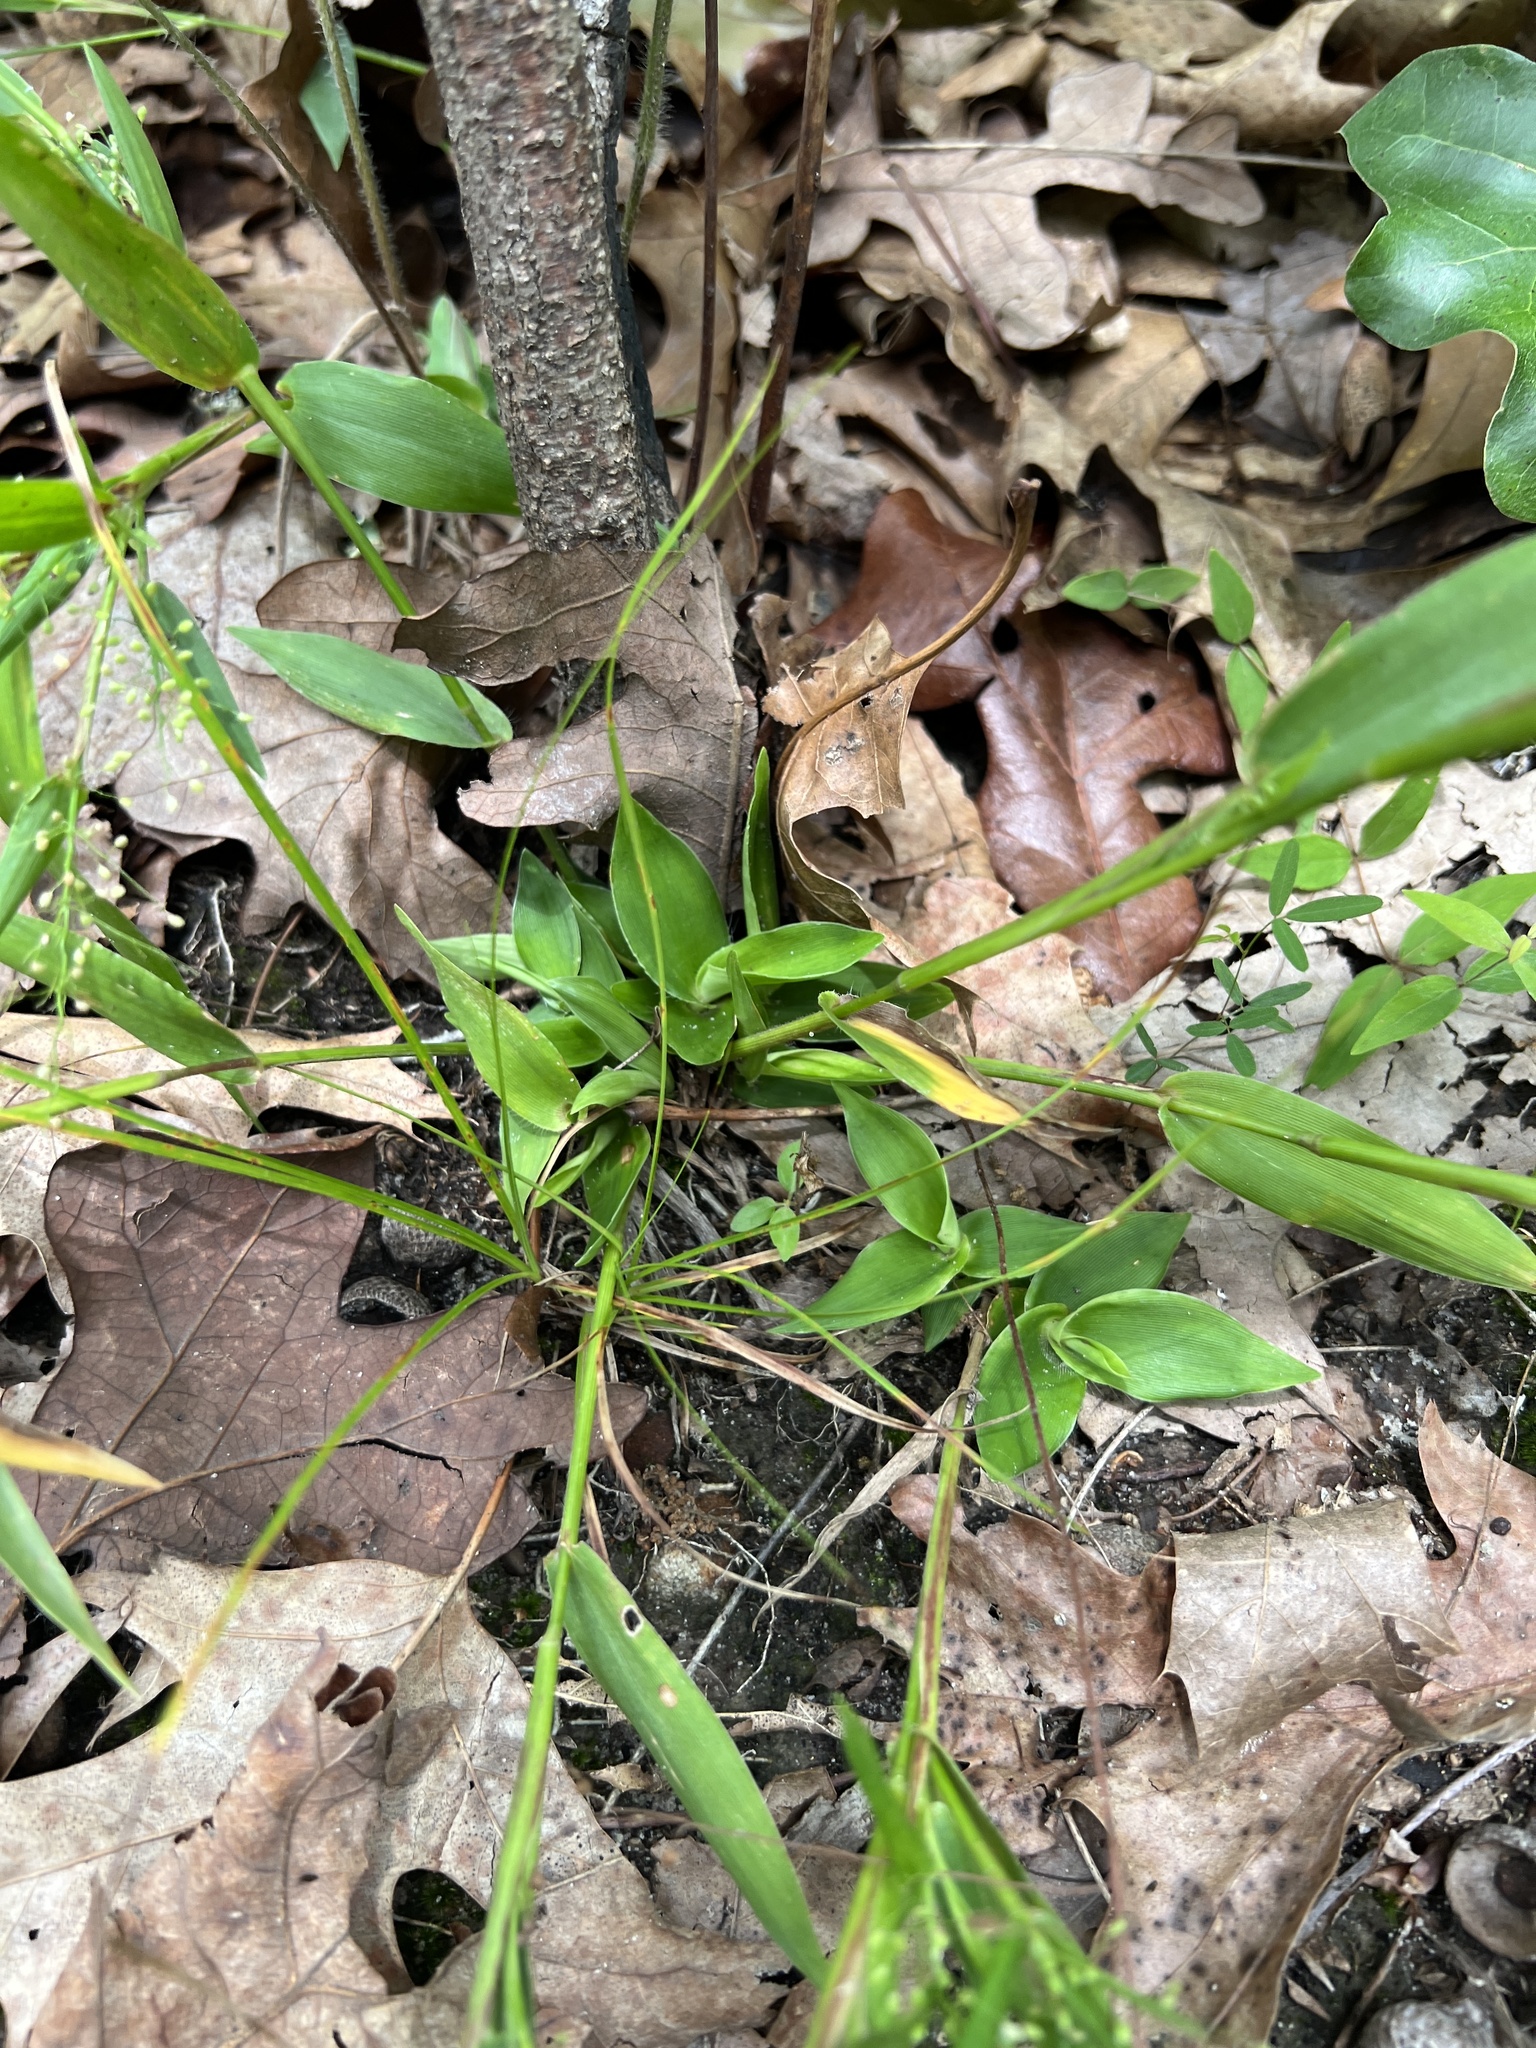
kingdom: Plantae
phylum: Tracheophyta
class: Liliopsida
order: Poales
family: Poaceae
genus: Dichanthelium
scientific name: Dichanthelium sphaerocarpon
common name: Round-fruited panicgrass
